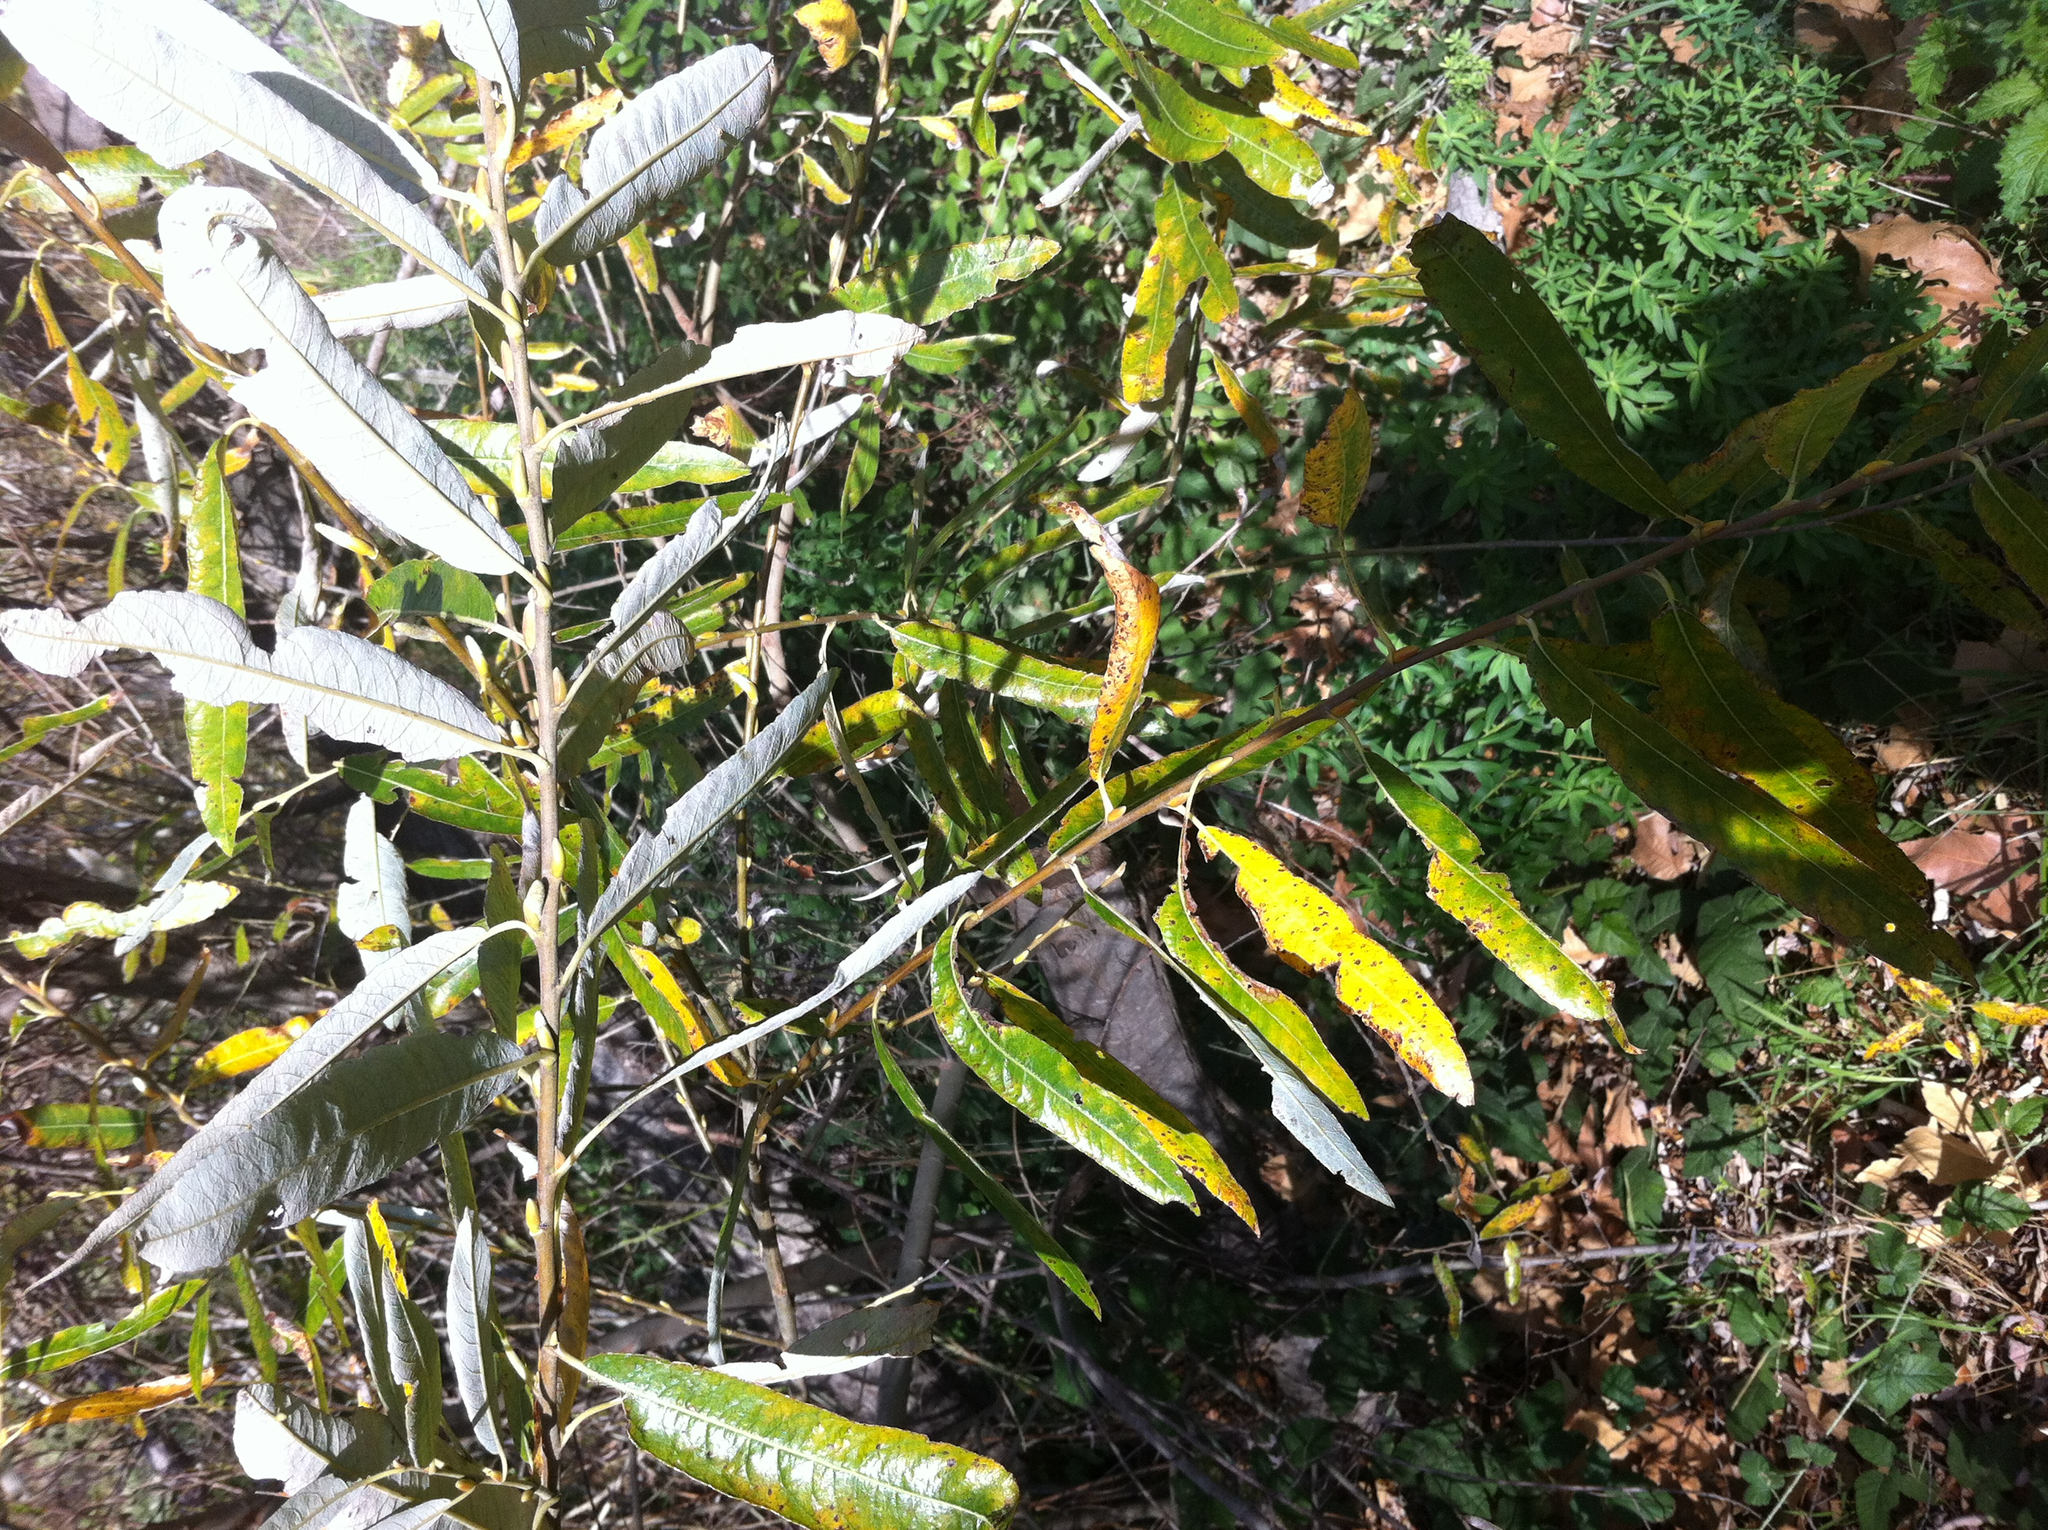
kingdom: Plantae
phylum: Tracheophyta
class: Magnoliopsida
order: Malpighiales
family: Salicaceae
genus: Salix
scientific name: Salix lasiolepis
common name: Arroyo willow
